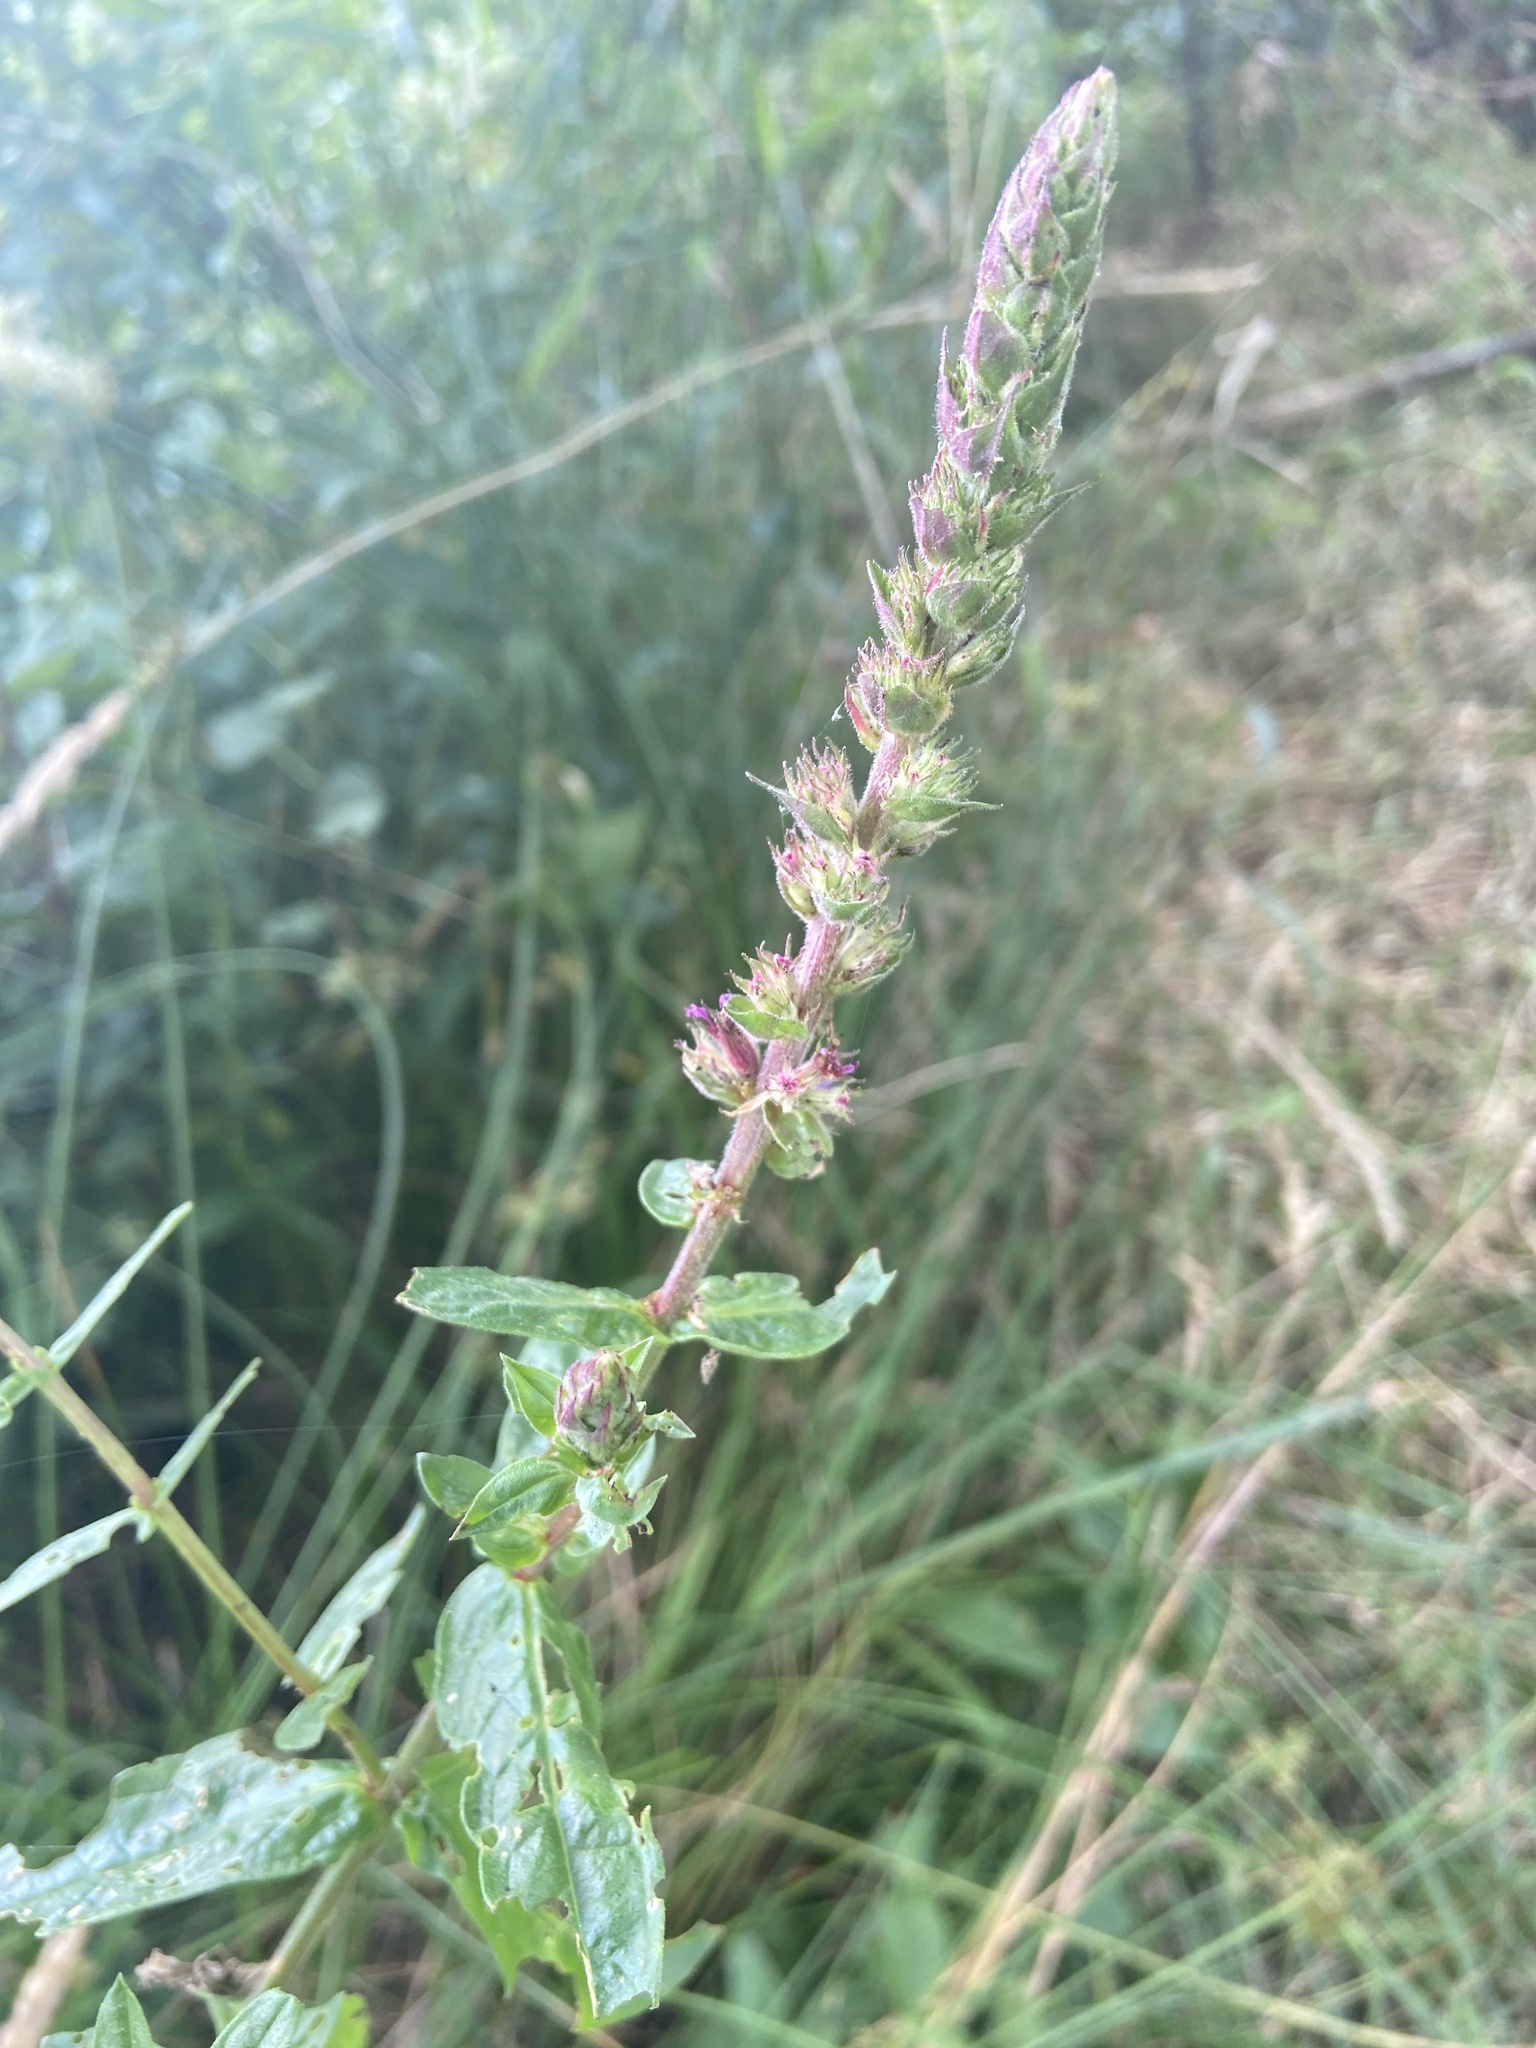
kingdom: Plantae
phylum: Tracheophyta
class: Magnoliopsida
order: Myrtales
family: Lythraceae
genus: Lythrum
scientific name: Lythrum salicaria
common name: Purple loosestrife
